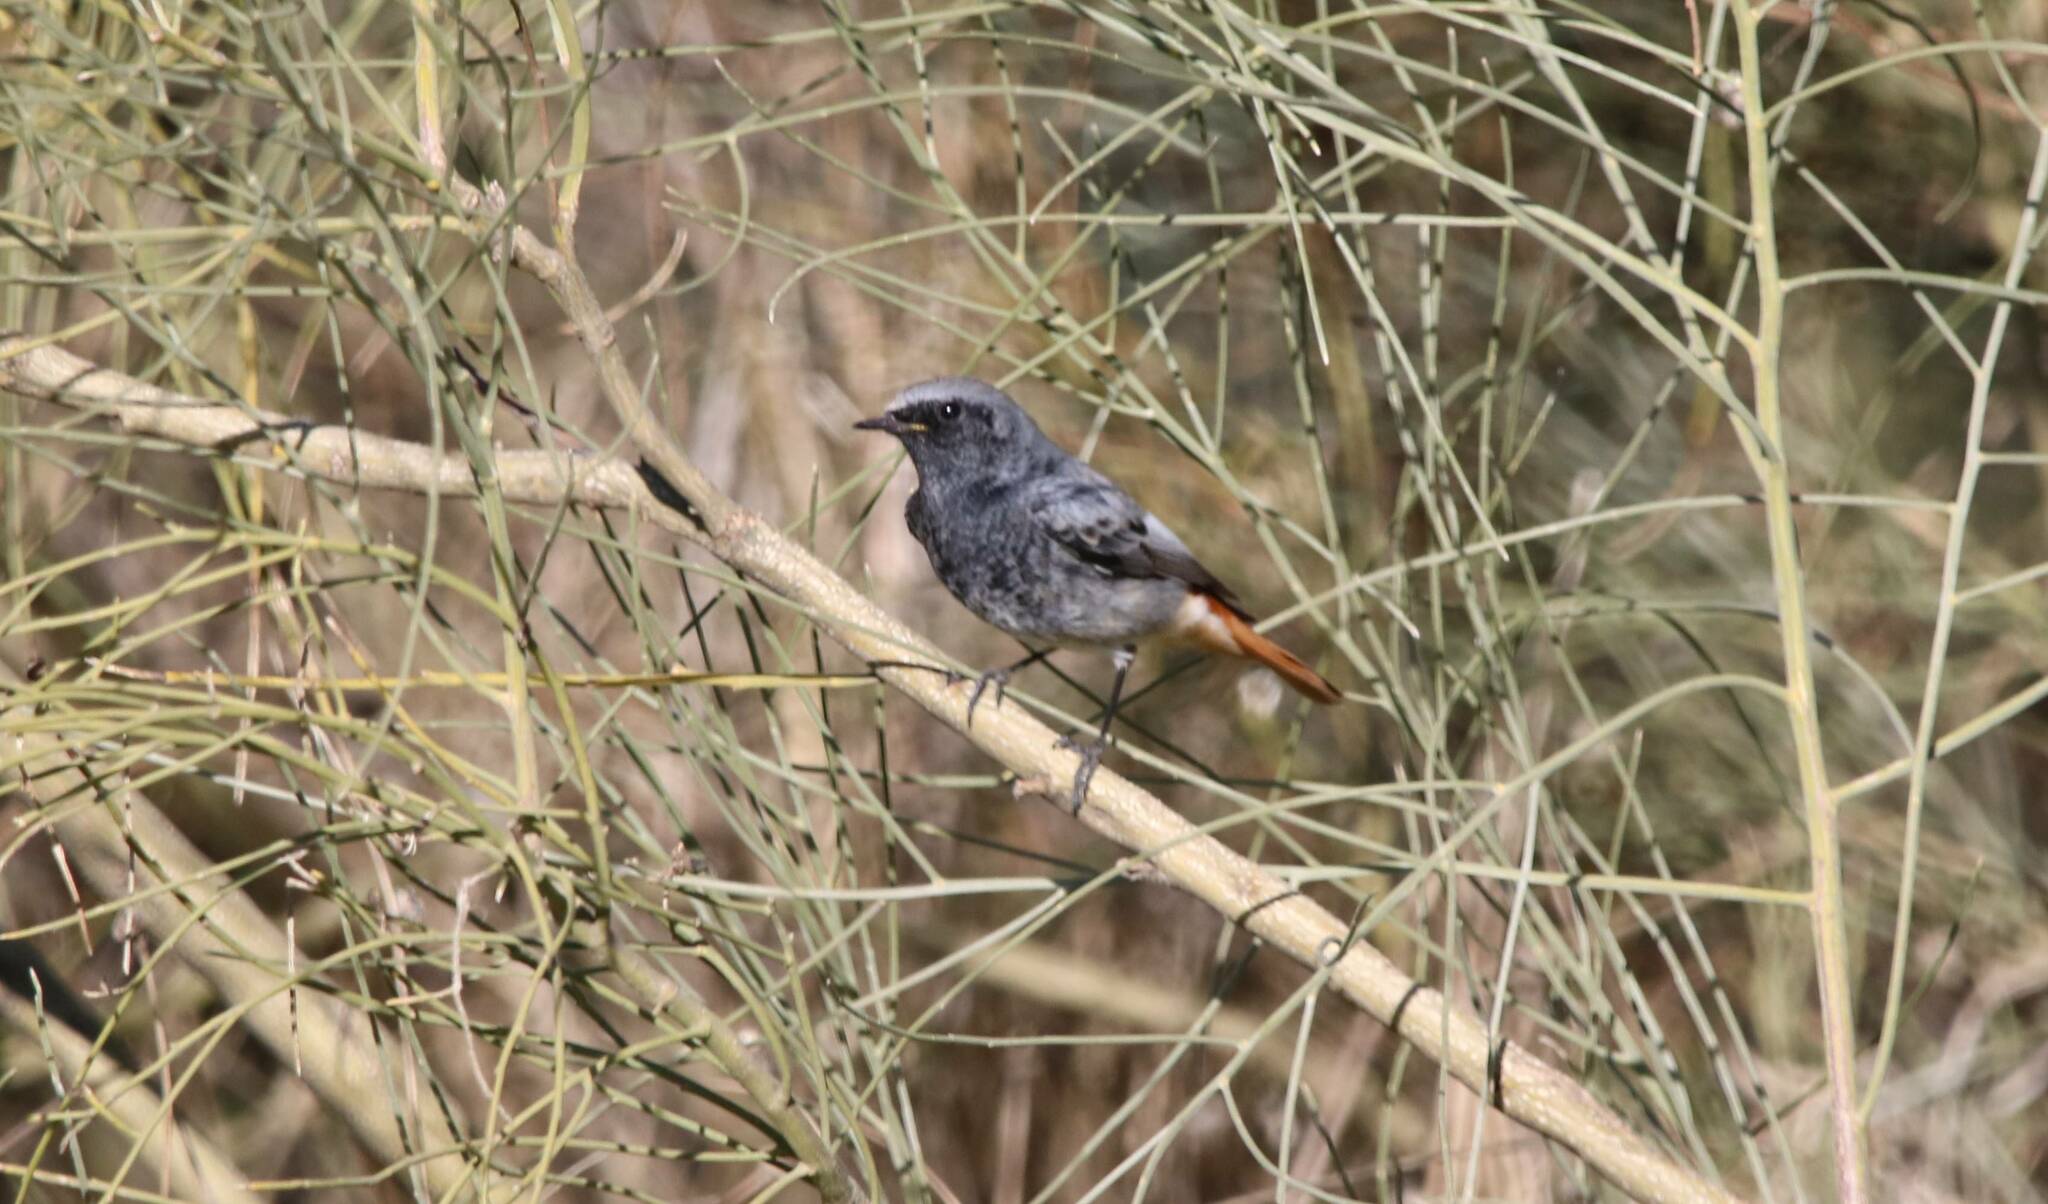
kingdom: Animalia
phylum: Chordata
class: Aves
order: Passeriformes
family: Muscicapidae
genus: Phoenicurus
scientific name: Phoenicurus ochruros
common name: Black redstart
